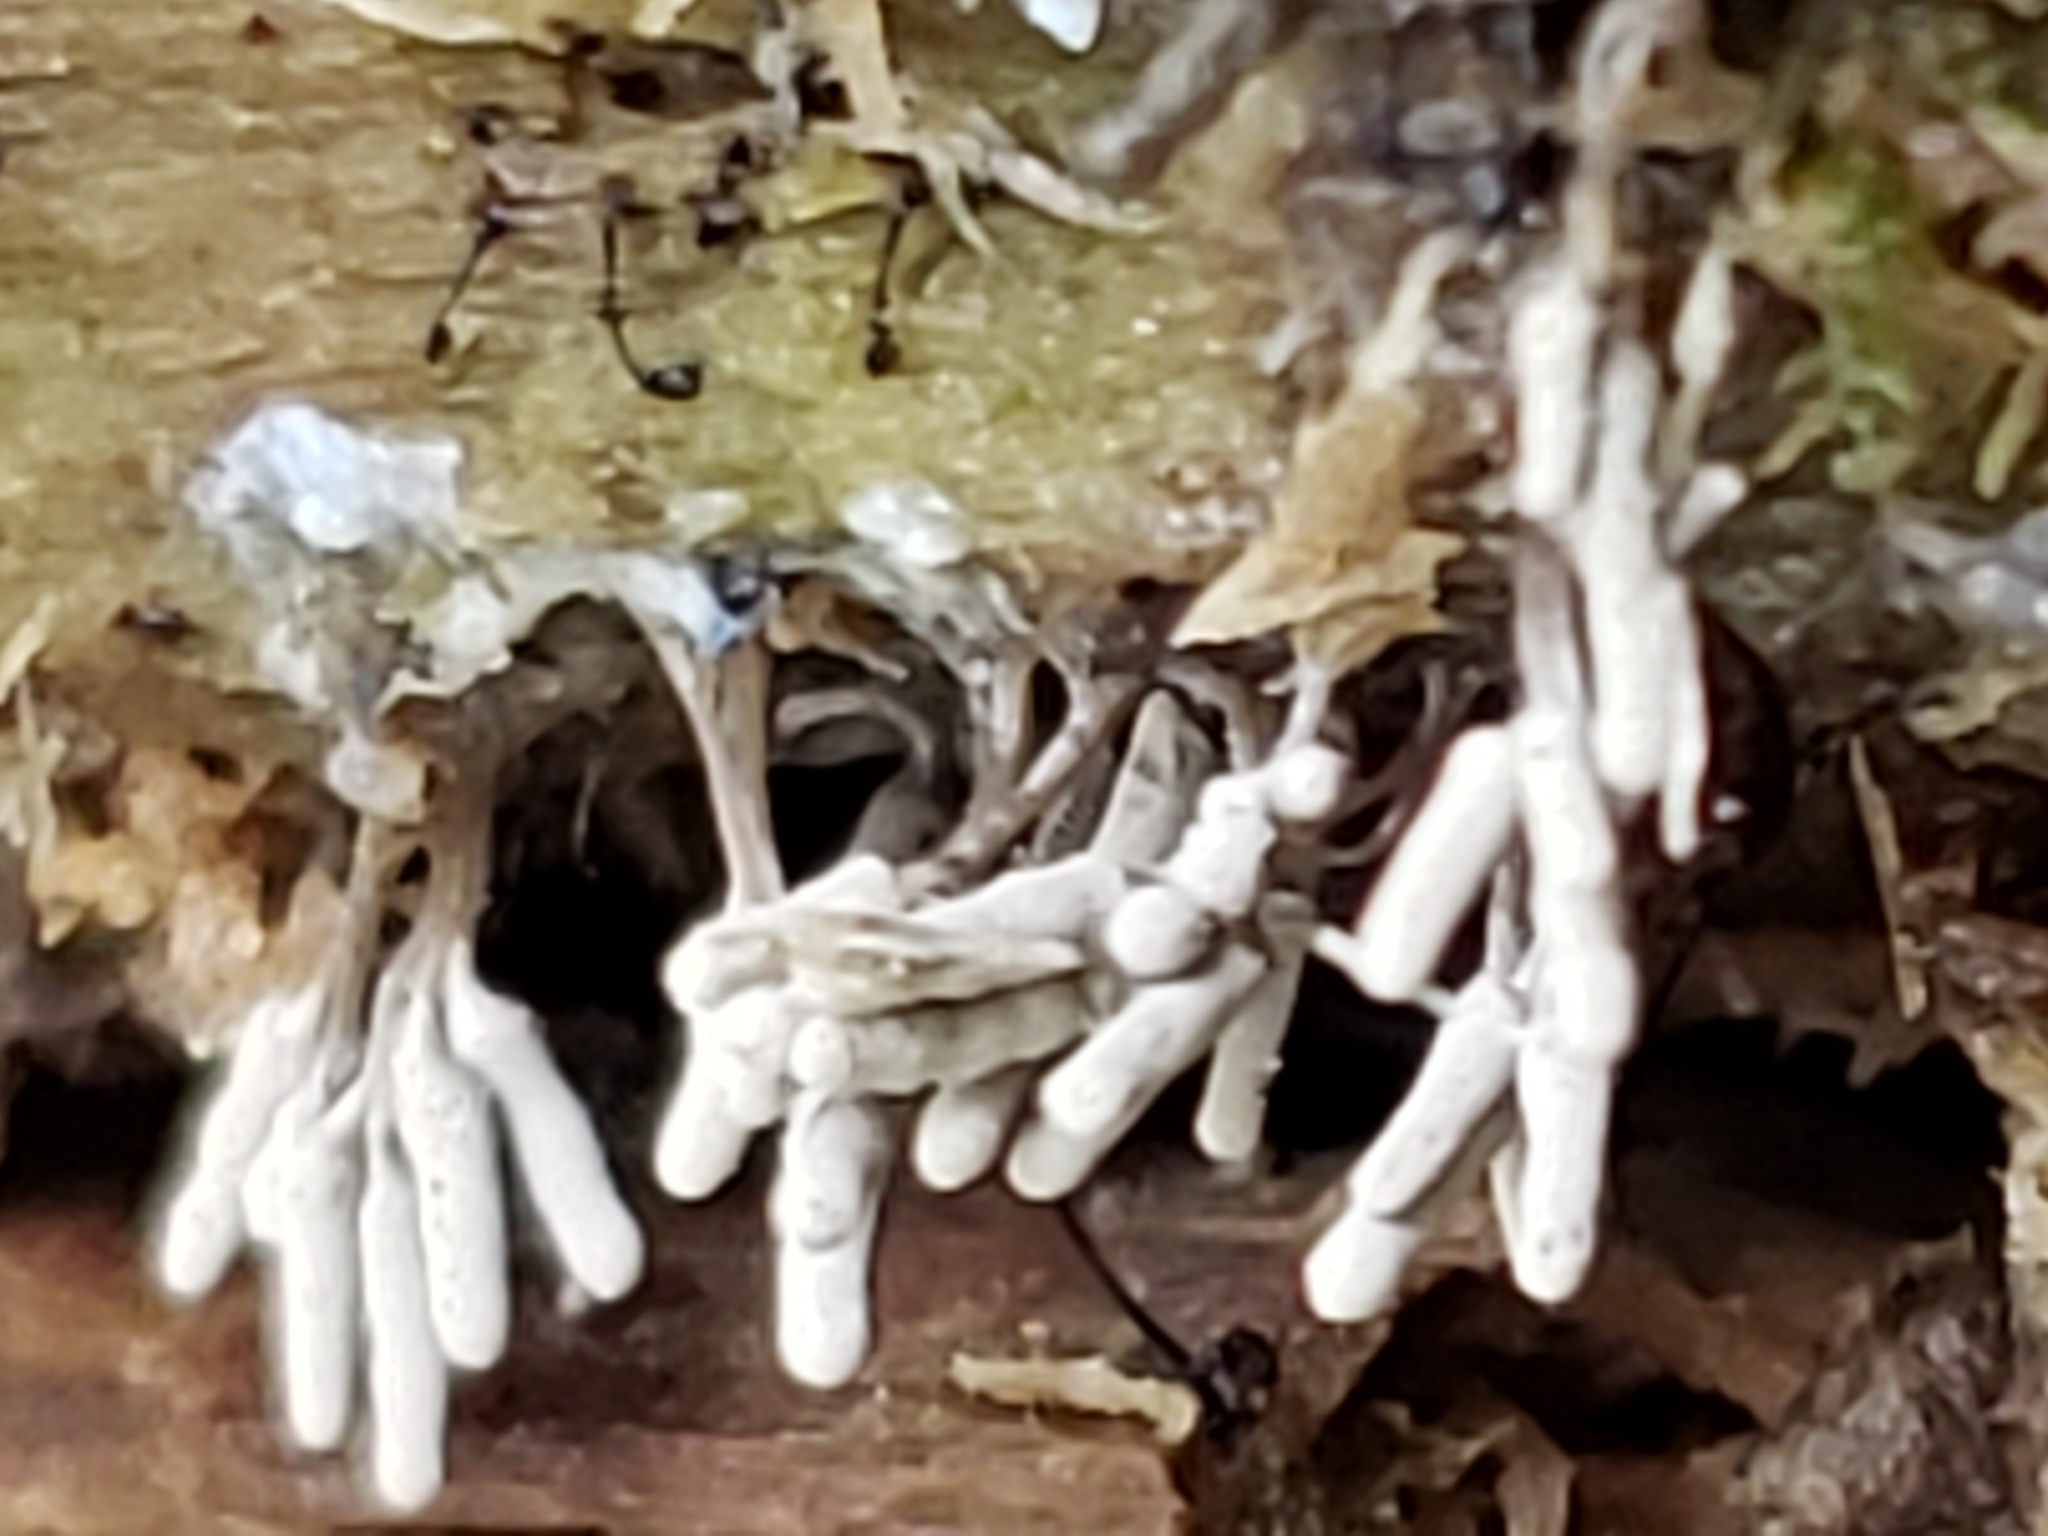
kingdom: Protozoa
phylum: Mycetozoa
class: Myxomycetes
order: Trichiales
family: Arcyriaceae
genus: Arcyria
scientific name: Arcyria cinerea
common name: White carnival candy slime mold
